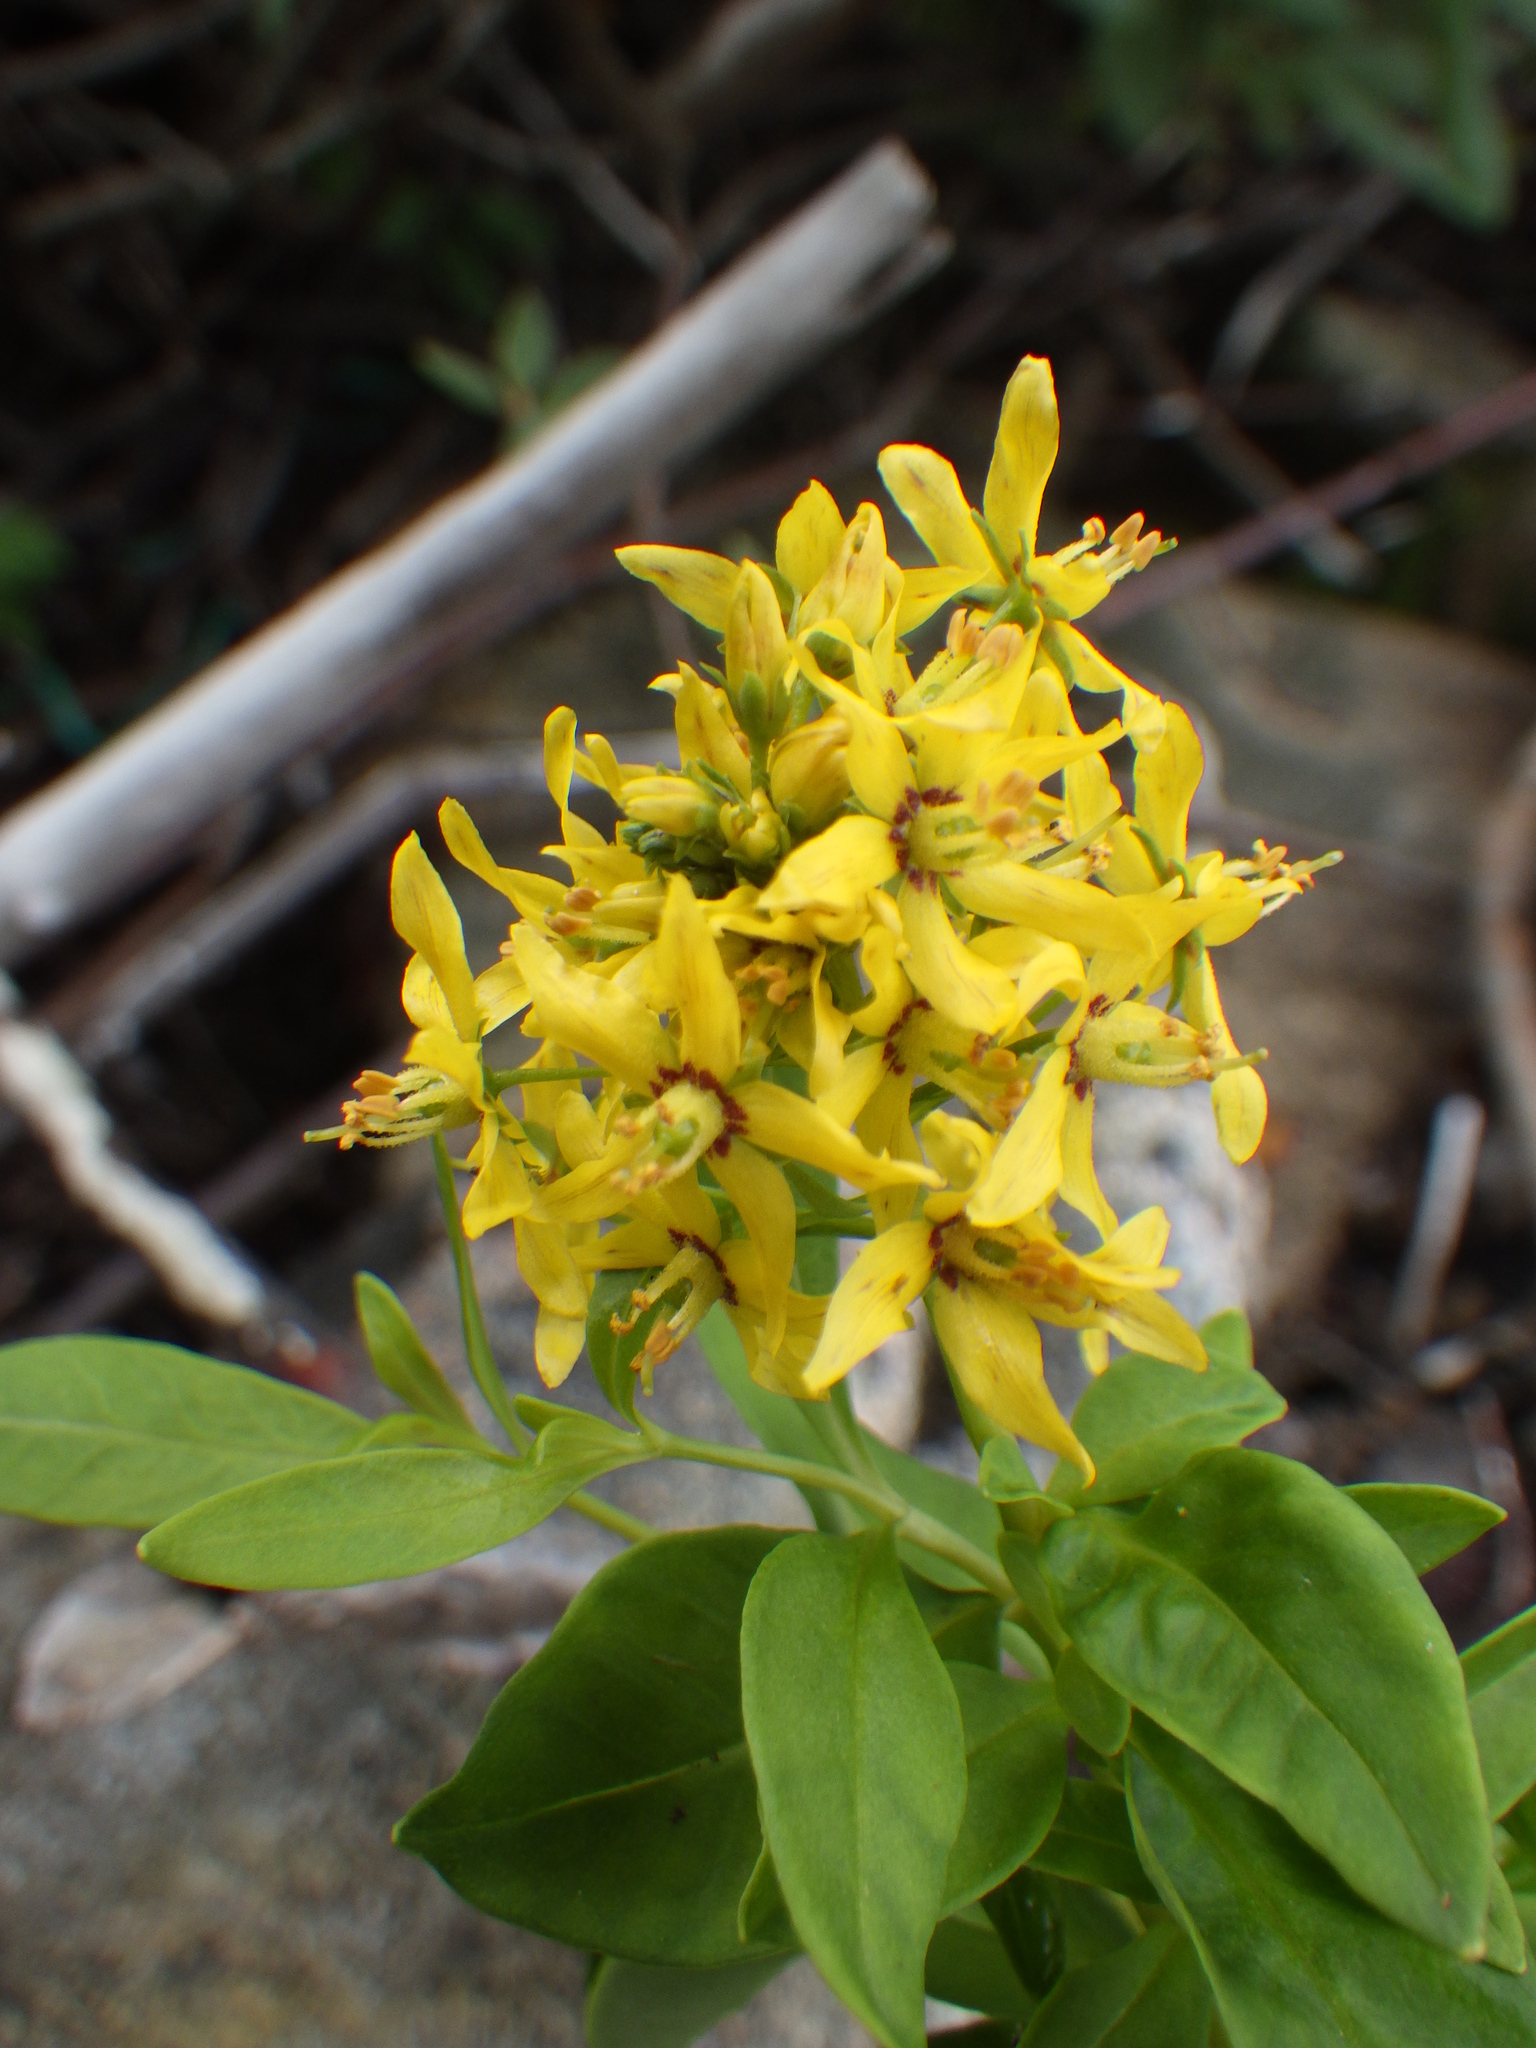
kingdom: Plantae
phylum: Tracheophyta
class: Magnoliopsida
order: Ericales
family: Primulaceae
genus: Lysimachia
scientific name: Lysimachia terrestris
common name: Lake loosestrife
